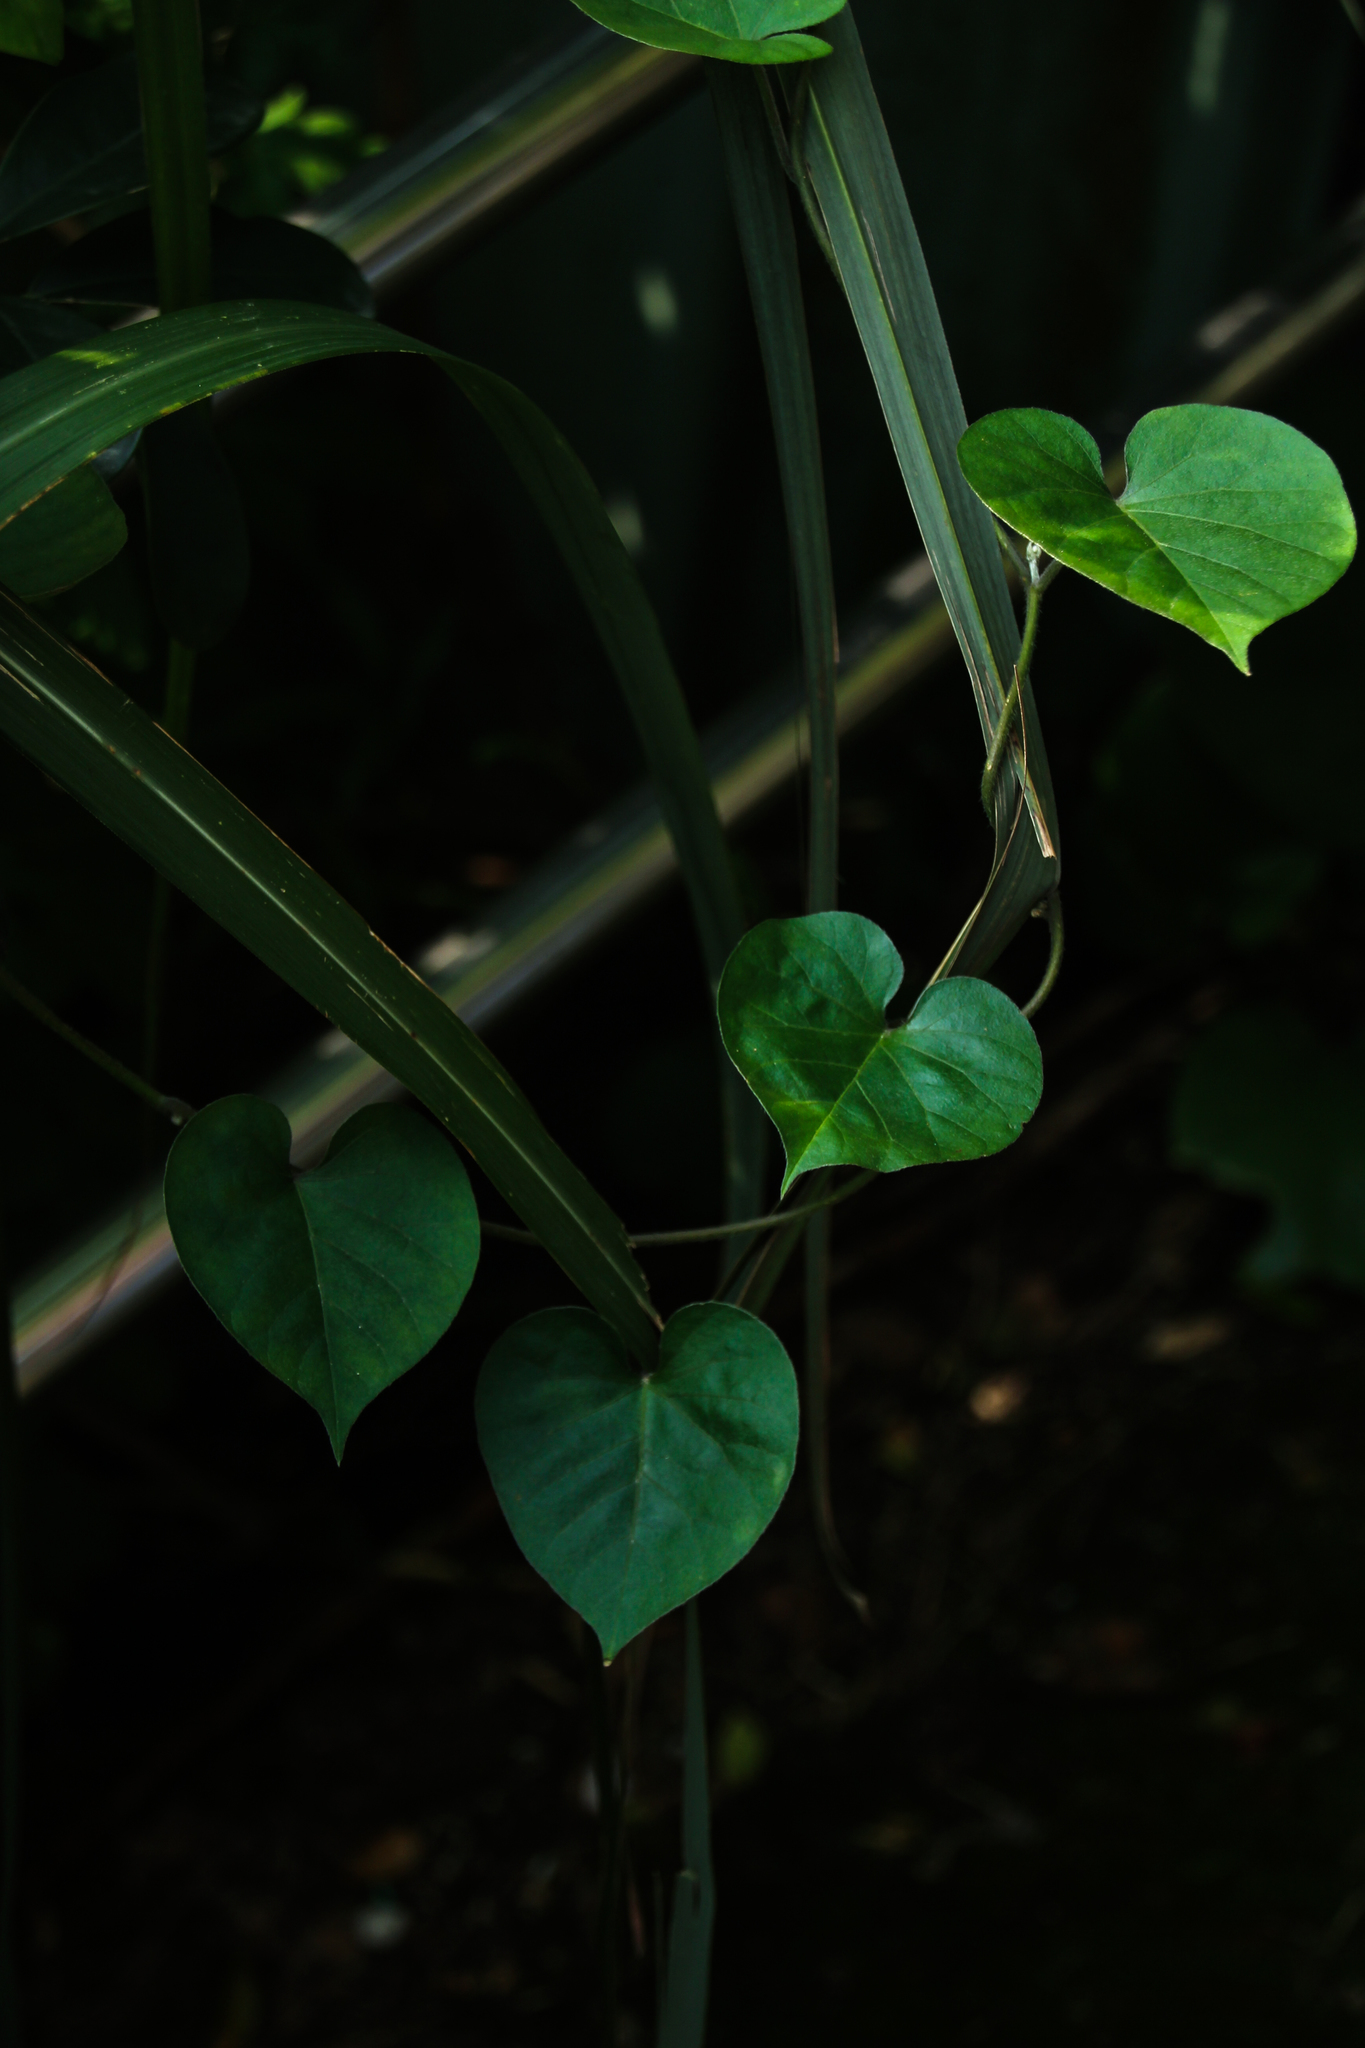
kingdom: Plantae
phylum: Tracheophyta
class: Magnoliopsida
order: Solanales
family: Convolvulaceae
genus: Ipomoea
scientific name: Ipomoea indica
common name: Blue dawnflower
